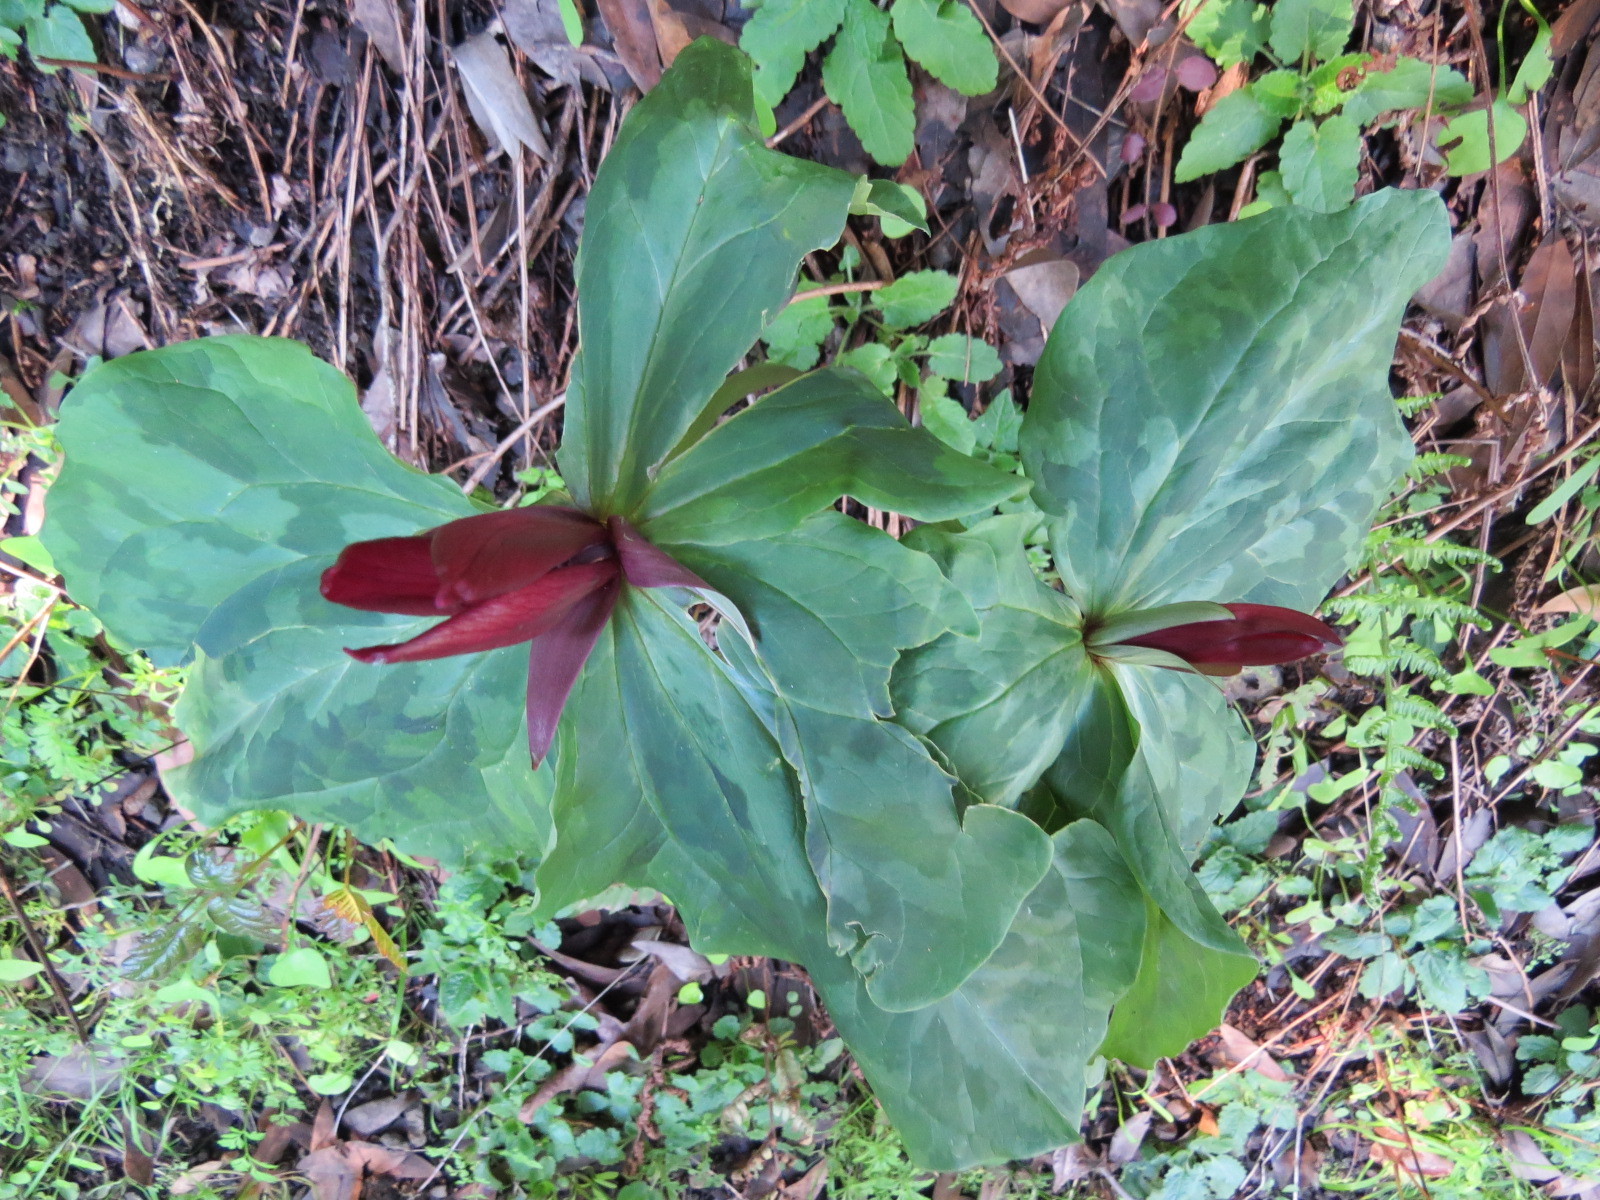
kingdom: Plantae
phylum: Tracheophyta
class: Liliopsida
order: Liliales
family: Melanthiaceae
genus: Trillium
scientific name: Trillium chloropetalum
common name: Giant trillium
